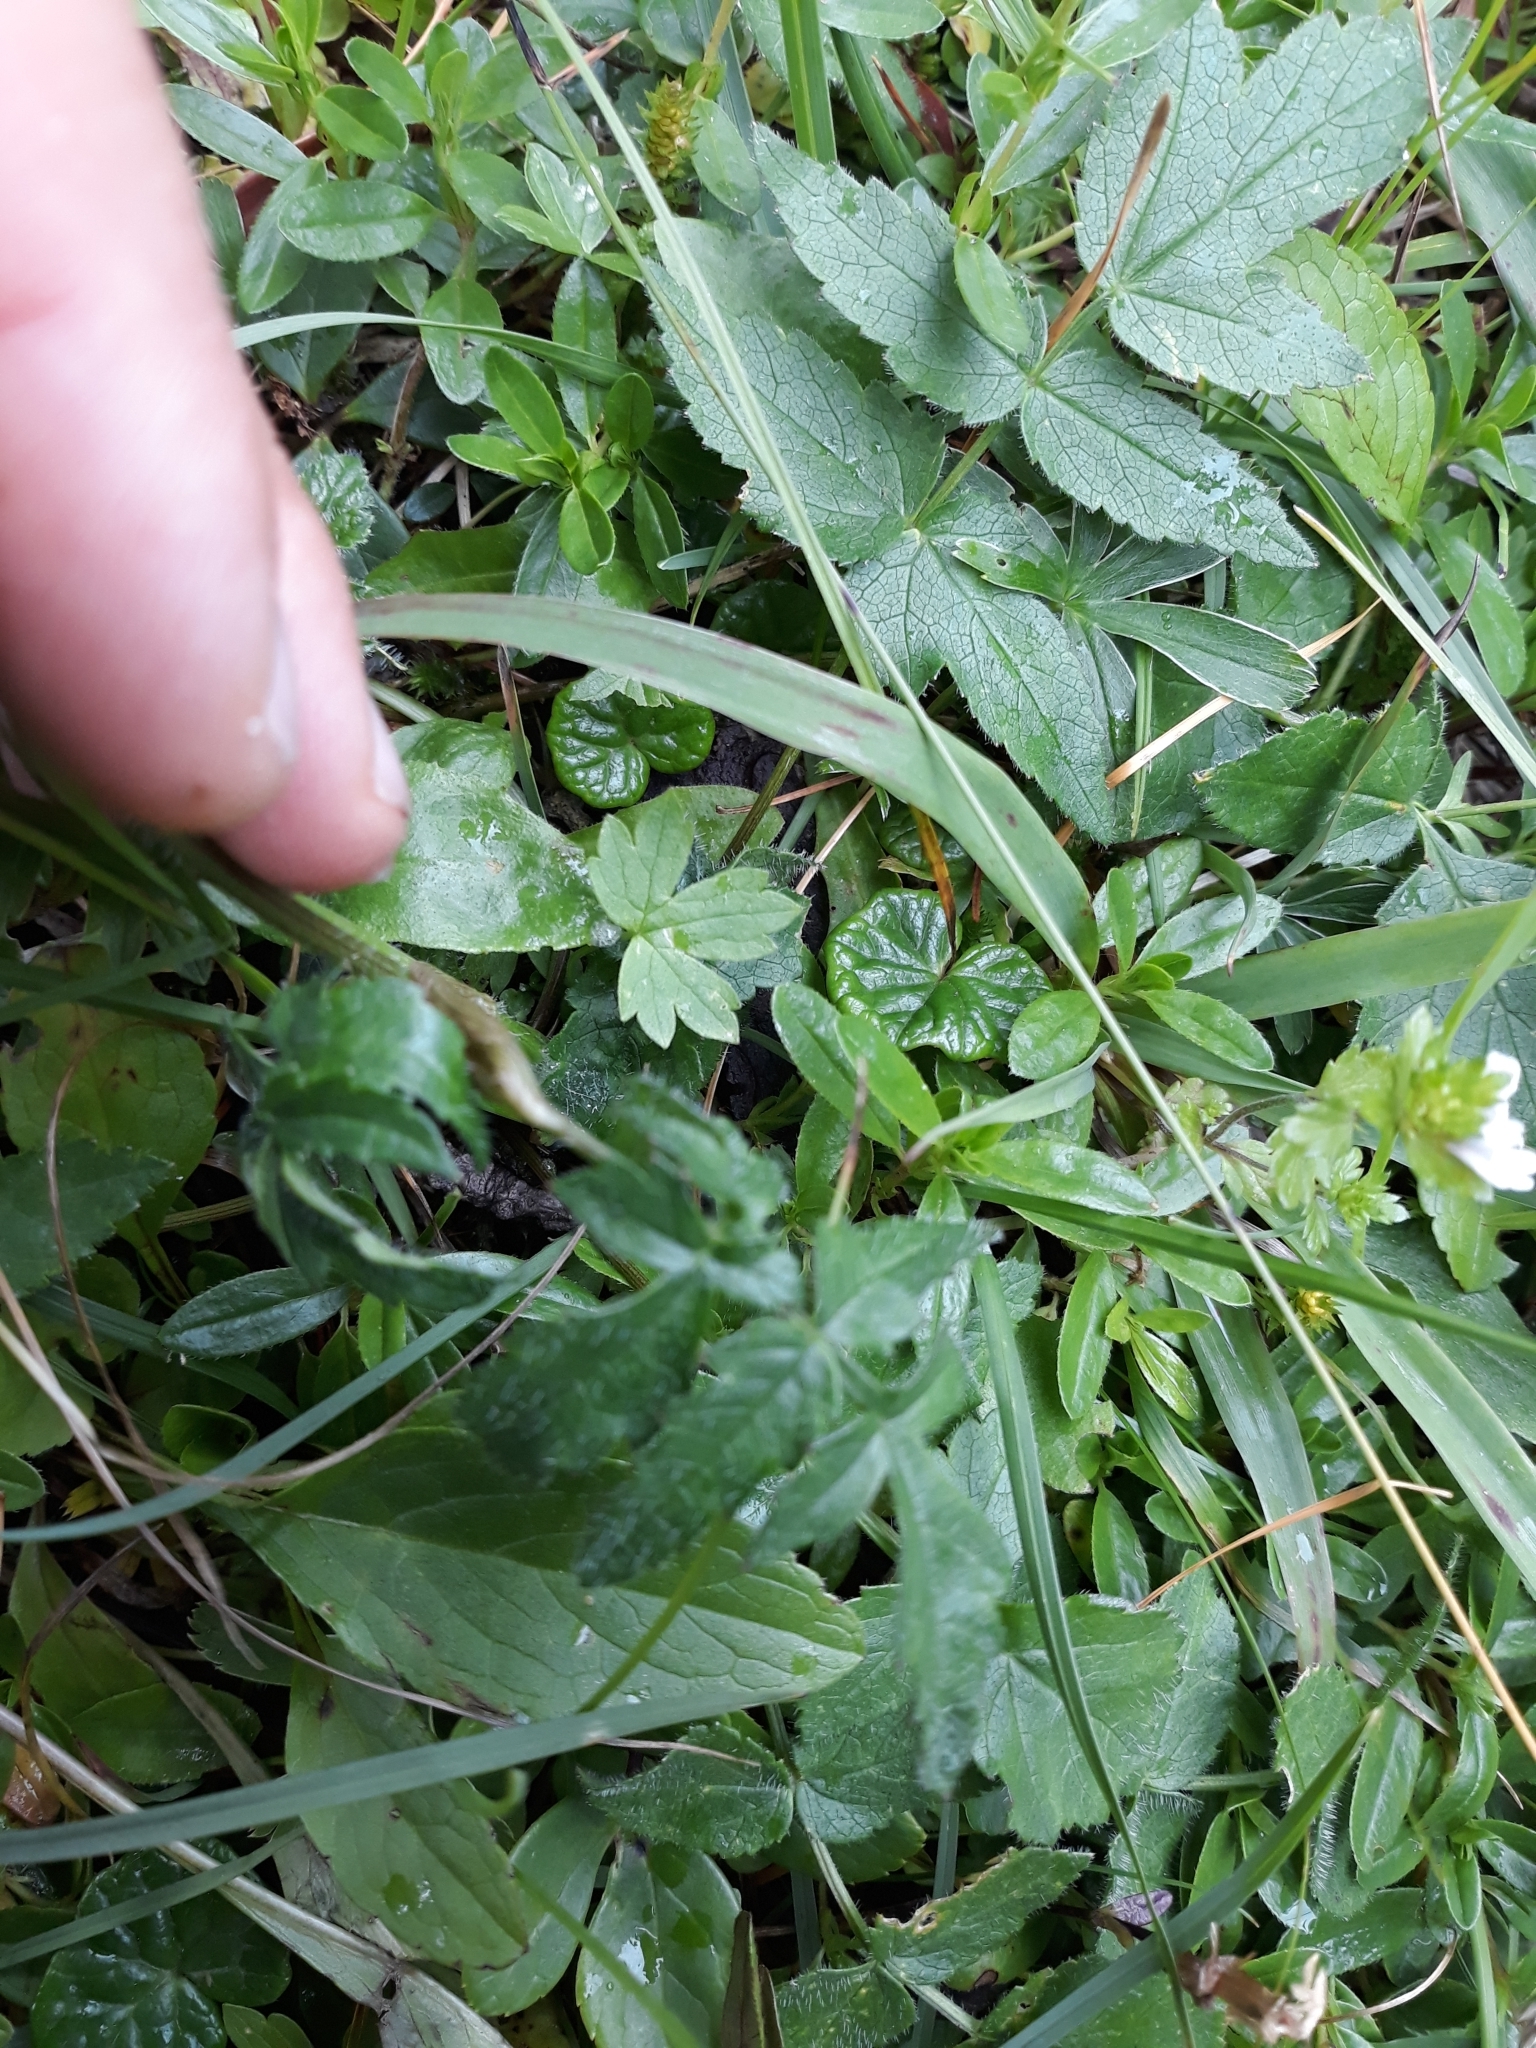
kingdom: Plantae
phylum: Tracheophyta
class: Magnoliopsida
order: Apiales
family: Apiaceae
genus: Heracleum
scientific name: Heracleum austriacum
